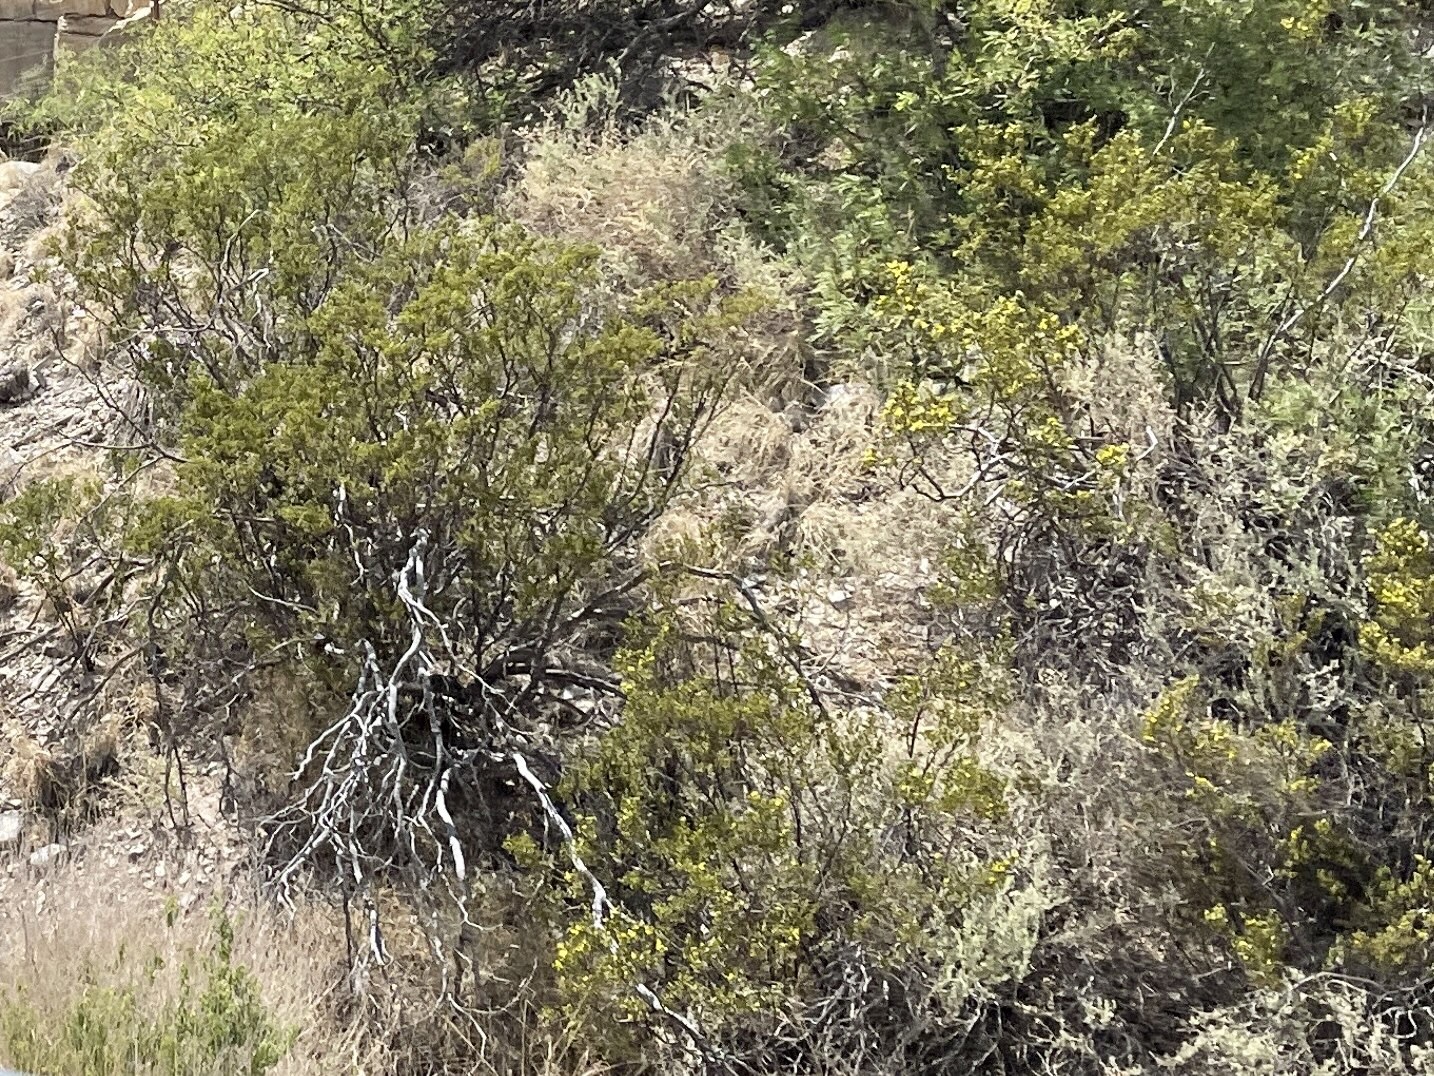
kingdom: Plantae
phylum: Tracheophyta
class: Magnoliopsida
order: Zygophyllales
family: Zygophyllaceae
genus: Larrea
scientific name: Larrea tridentata
